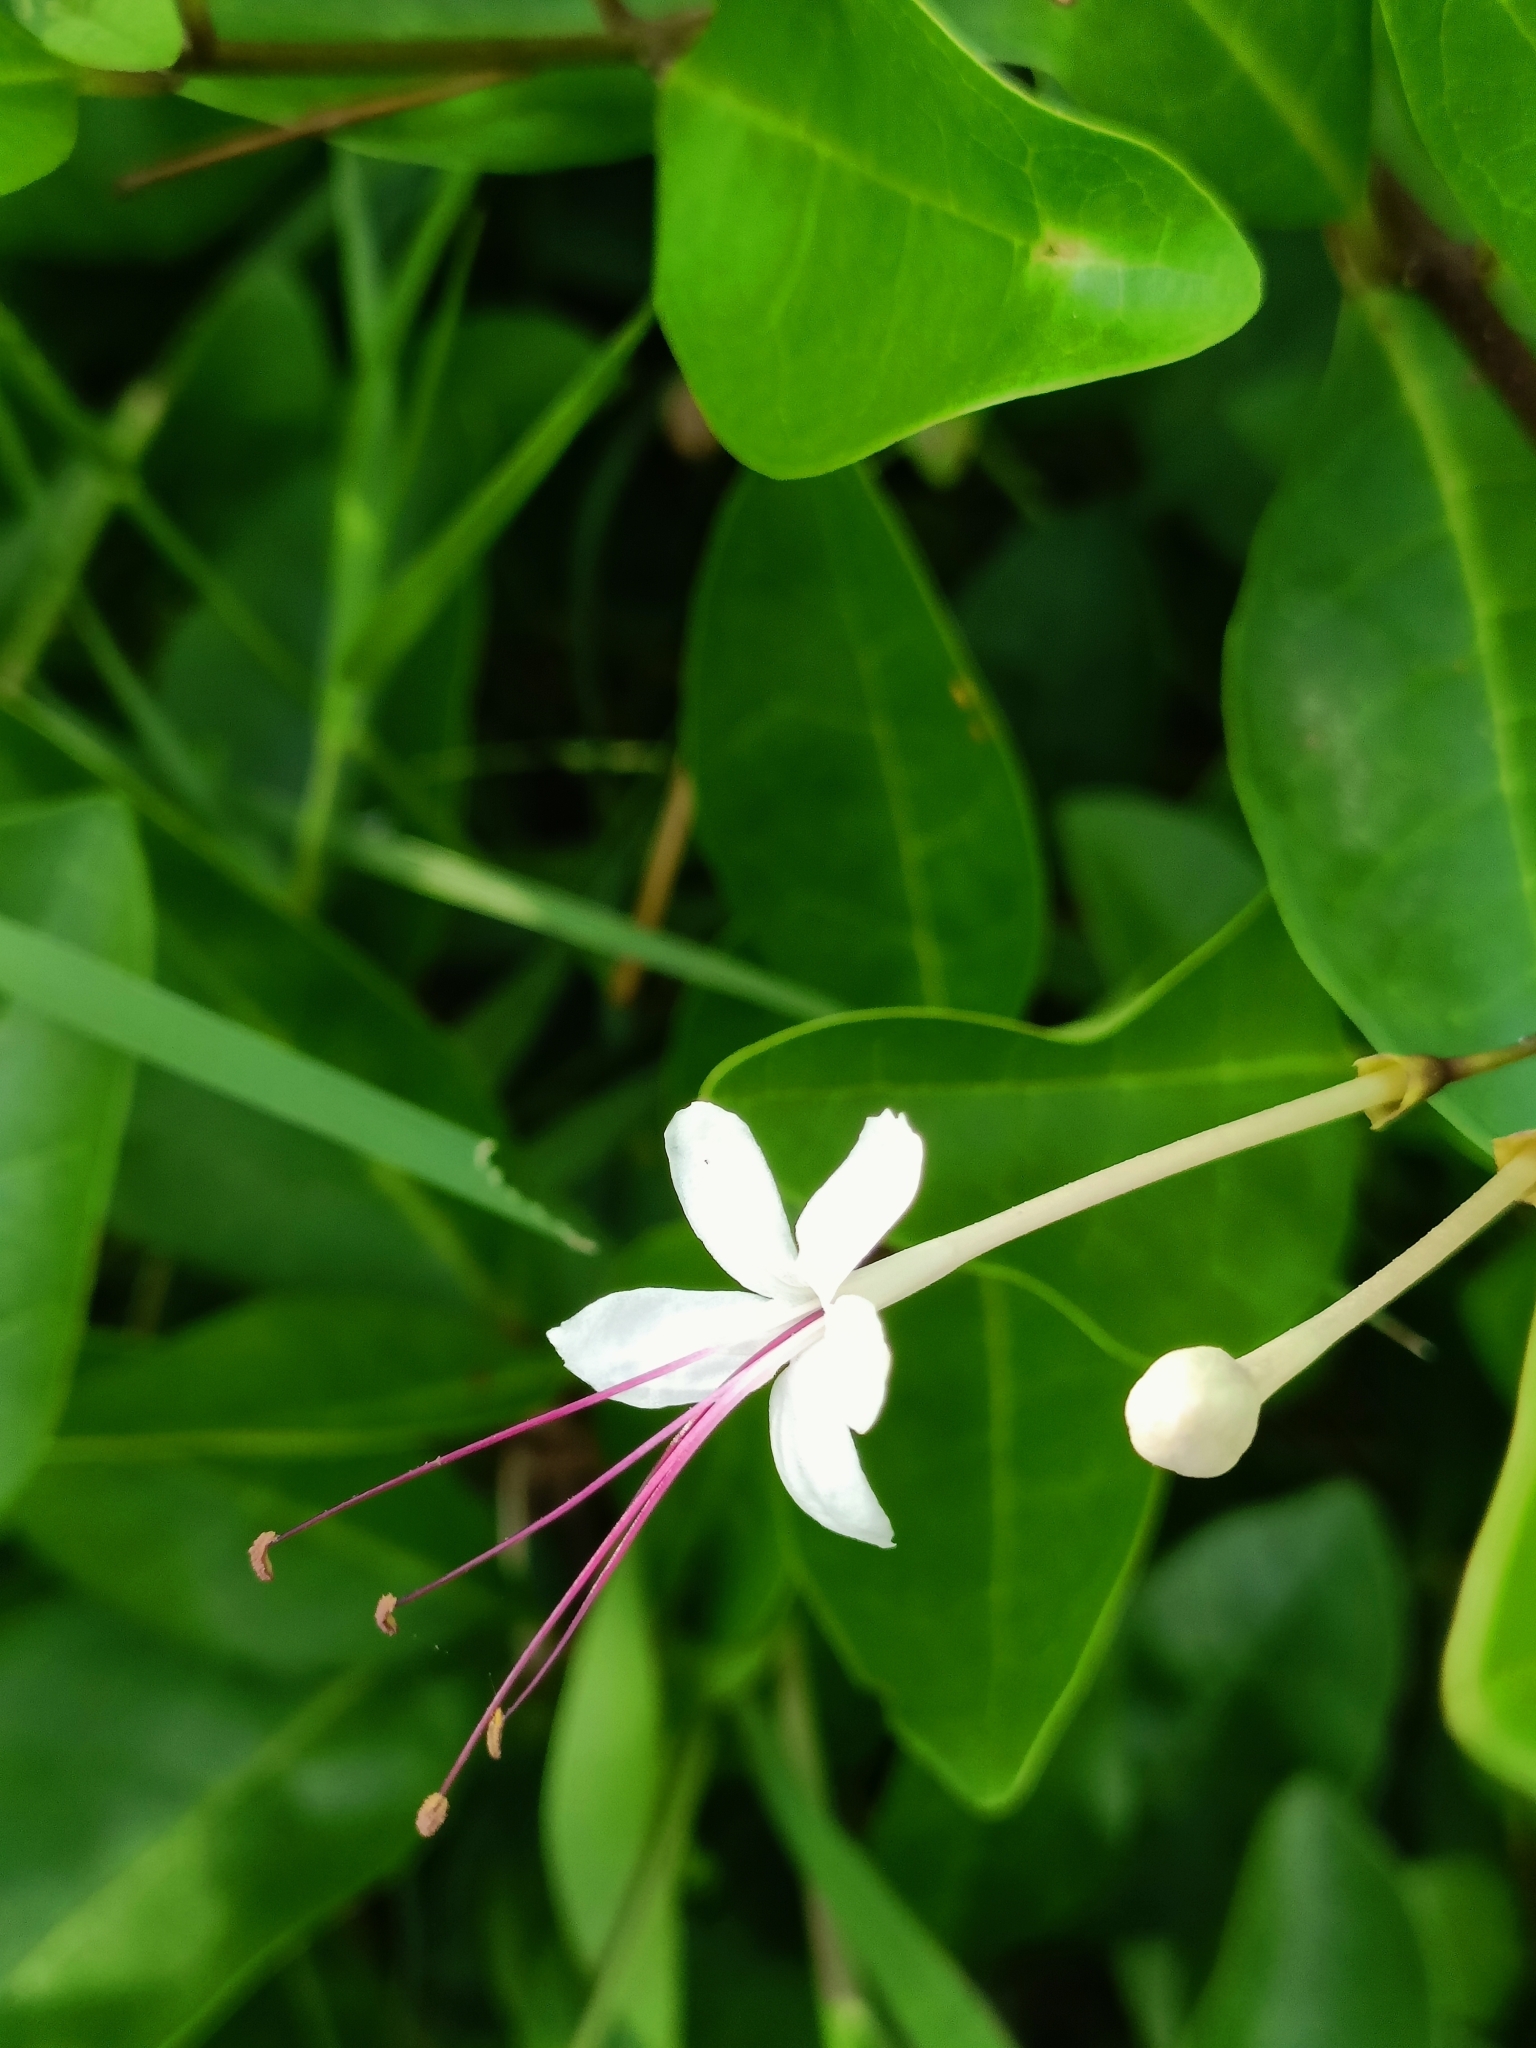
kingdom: Plantae
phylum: Tracheophyta
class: Magnoliopsida
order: Lamiales
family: Lamiaceae
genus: Volkameria
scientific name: Volkameria inermis
